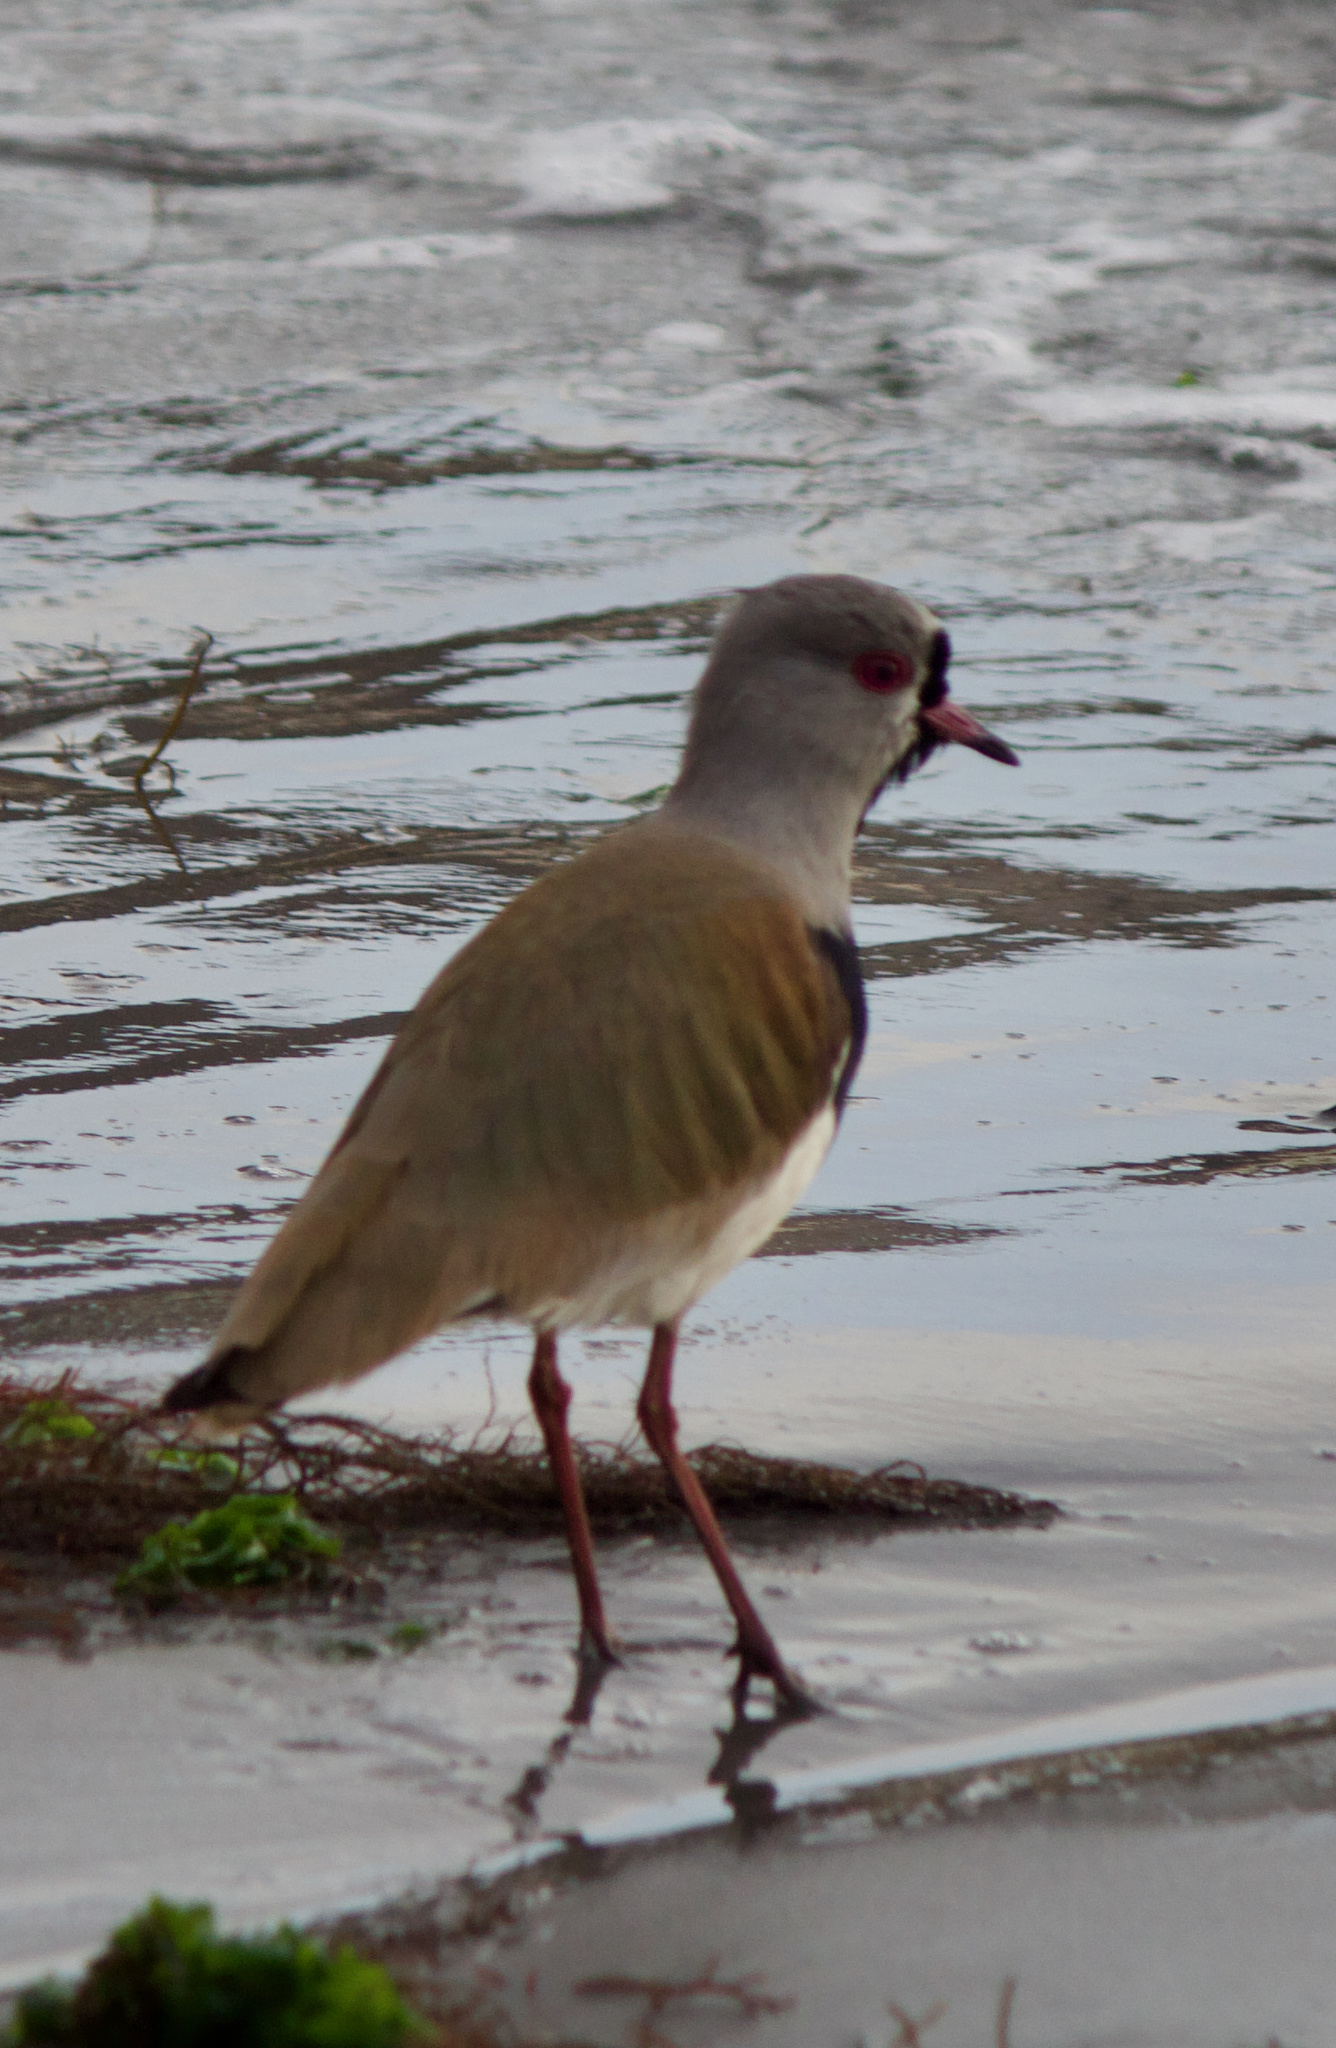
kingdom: Animalia
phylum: Chordata
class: Aves
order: Charadriiformes
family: Charadriidae
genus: Vanellus
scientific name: Vanellus chilensis
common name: Southern lapwing
